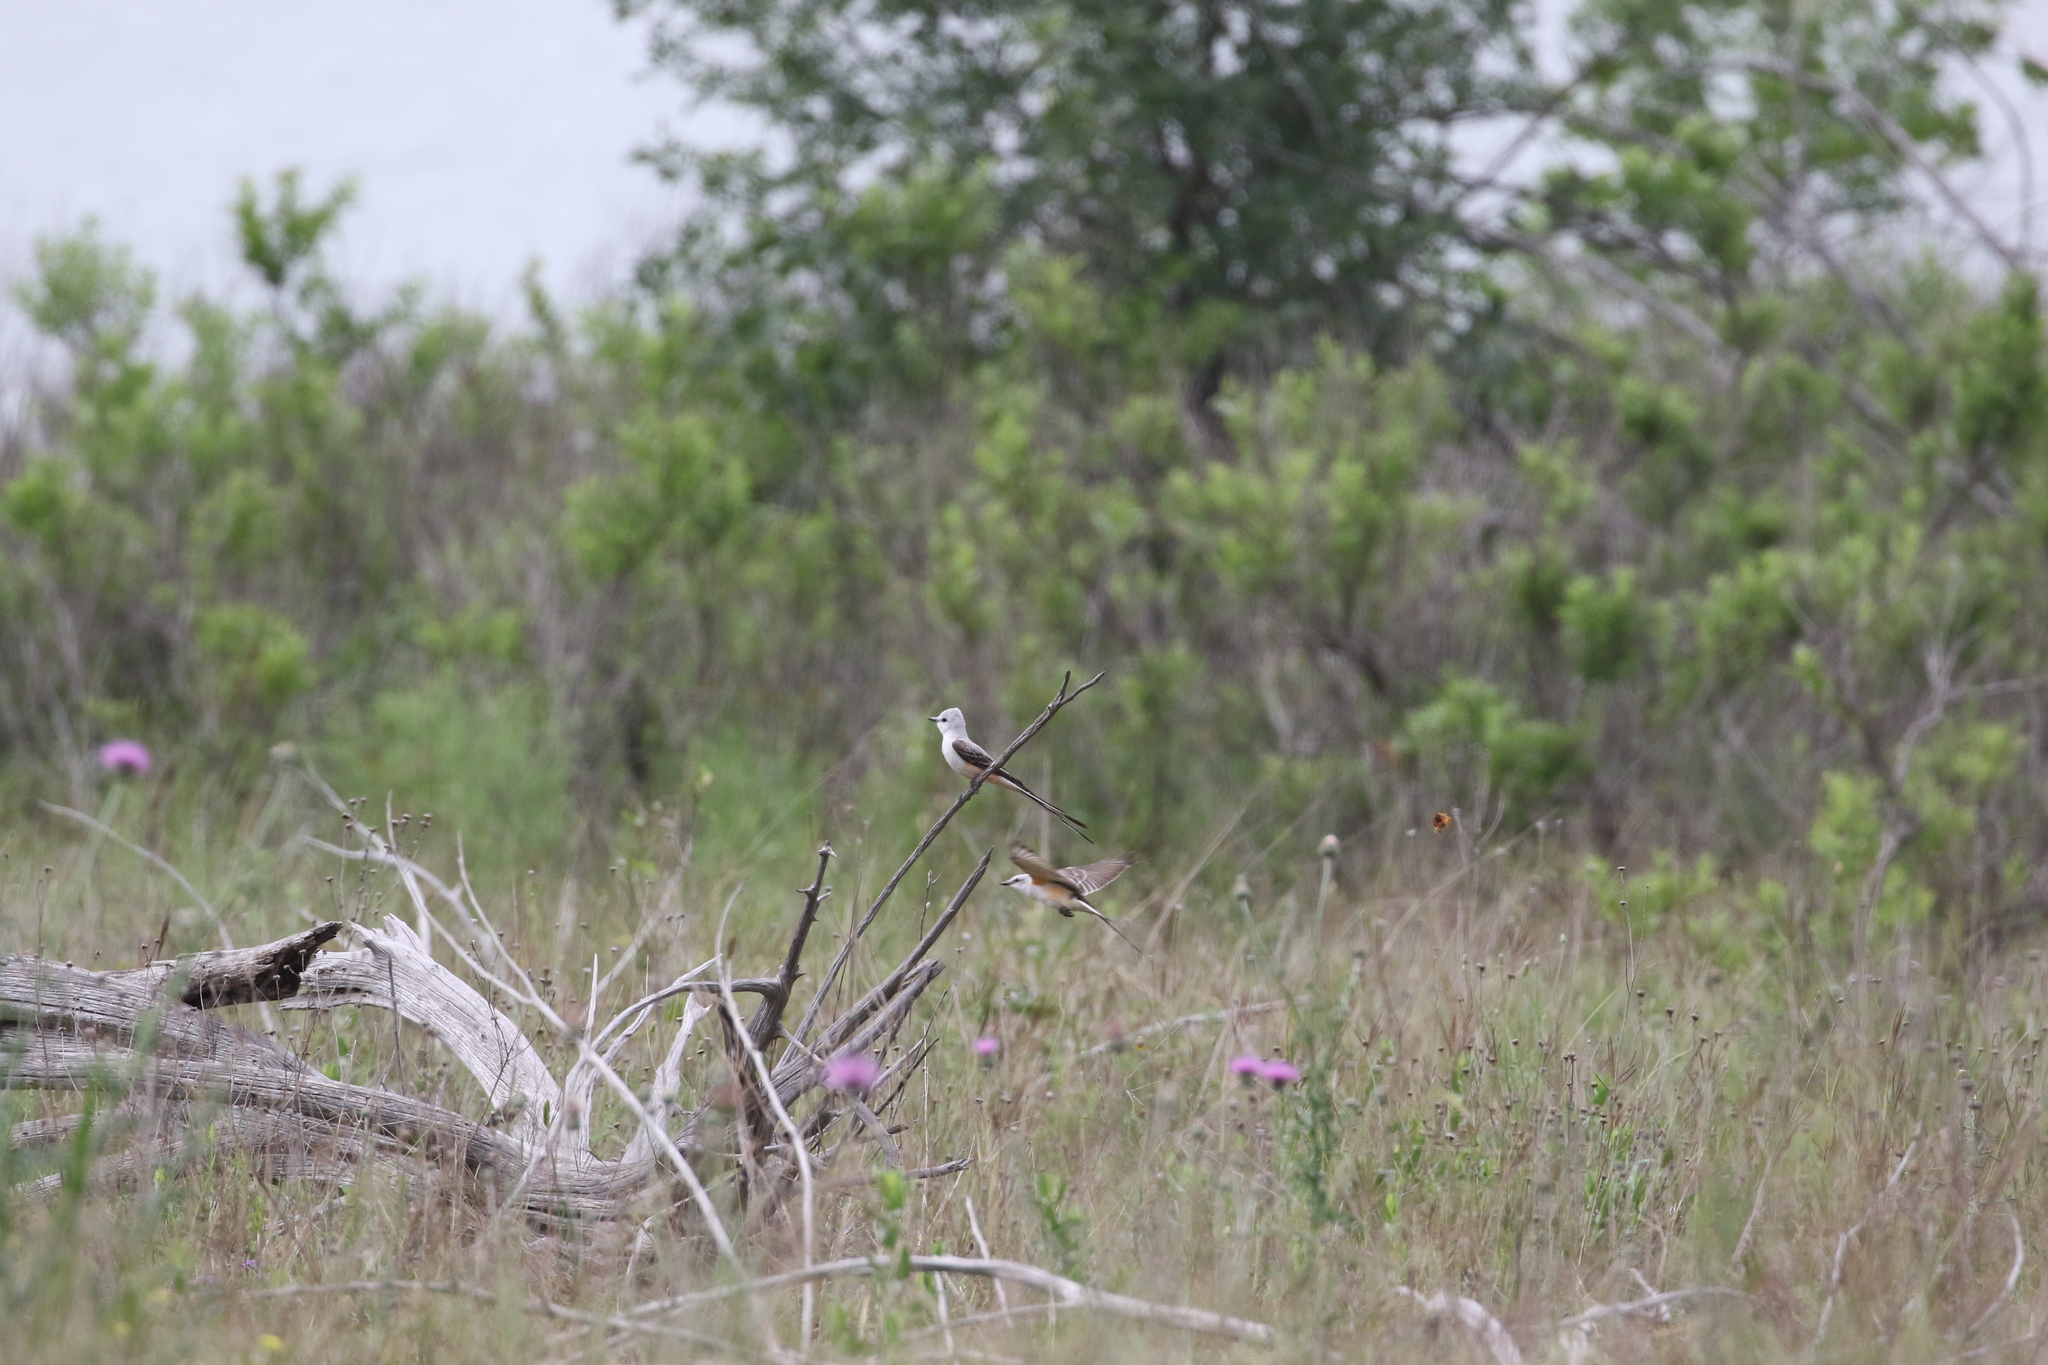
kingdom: Animalia
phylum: Chordata
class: Aves
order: Passeriformes
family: Tyrannidae
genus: Tyrannus
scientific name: Tyrannus forficatus
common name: Scissor-tailed flycatcher
